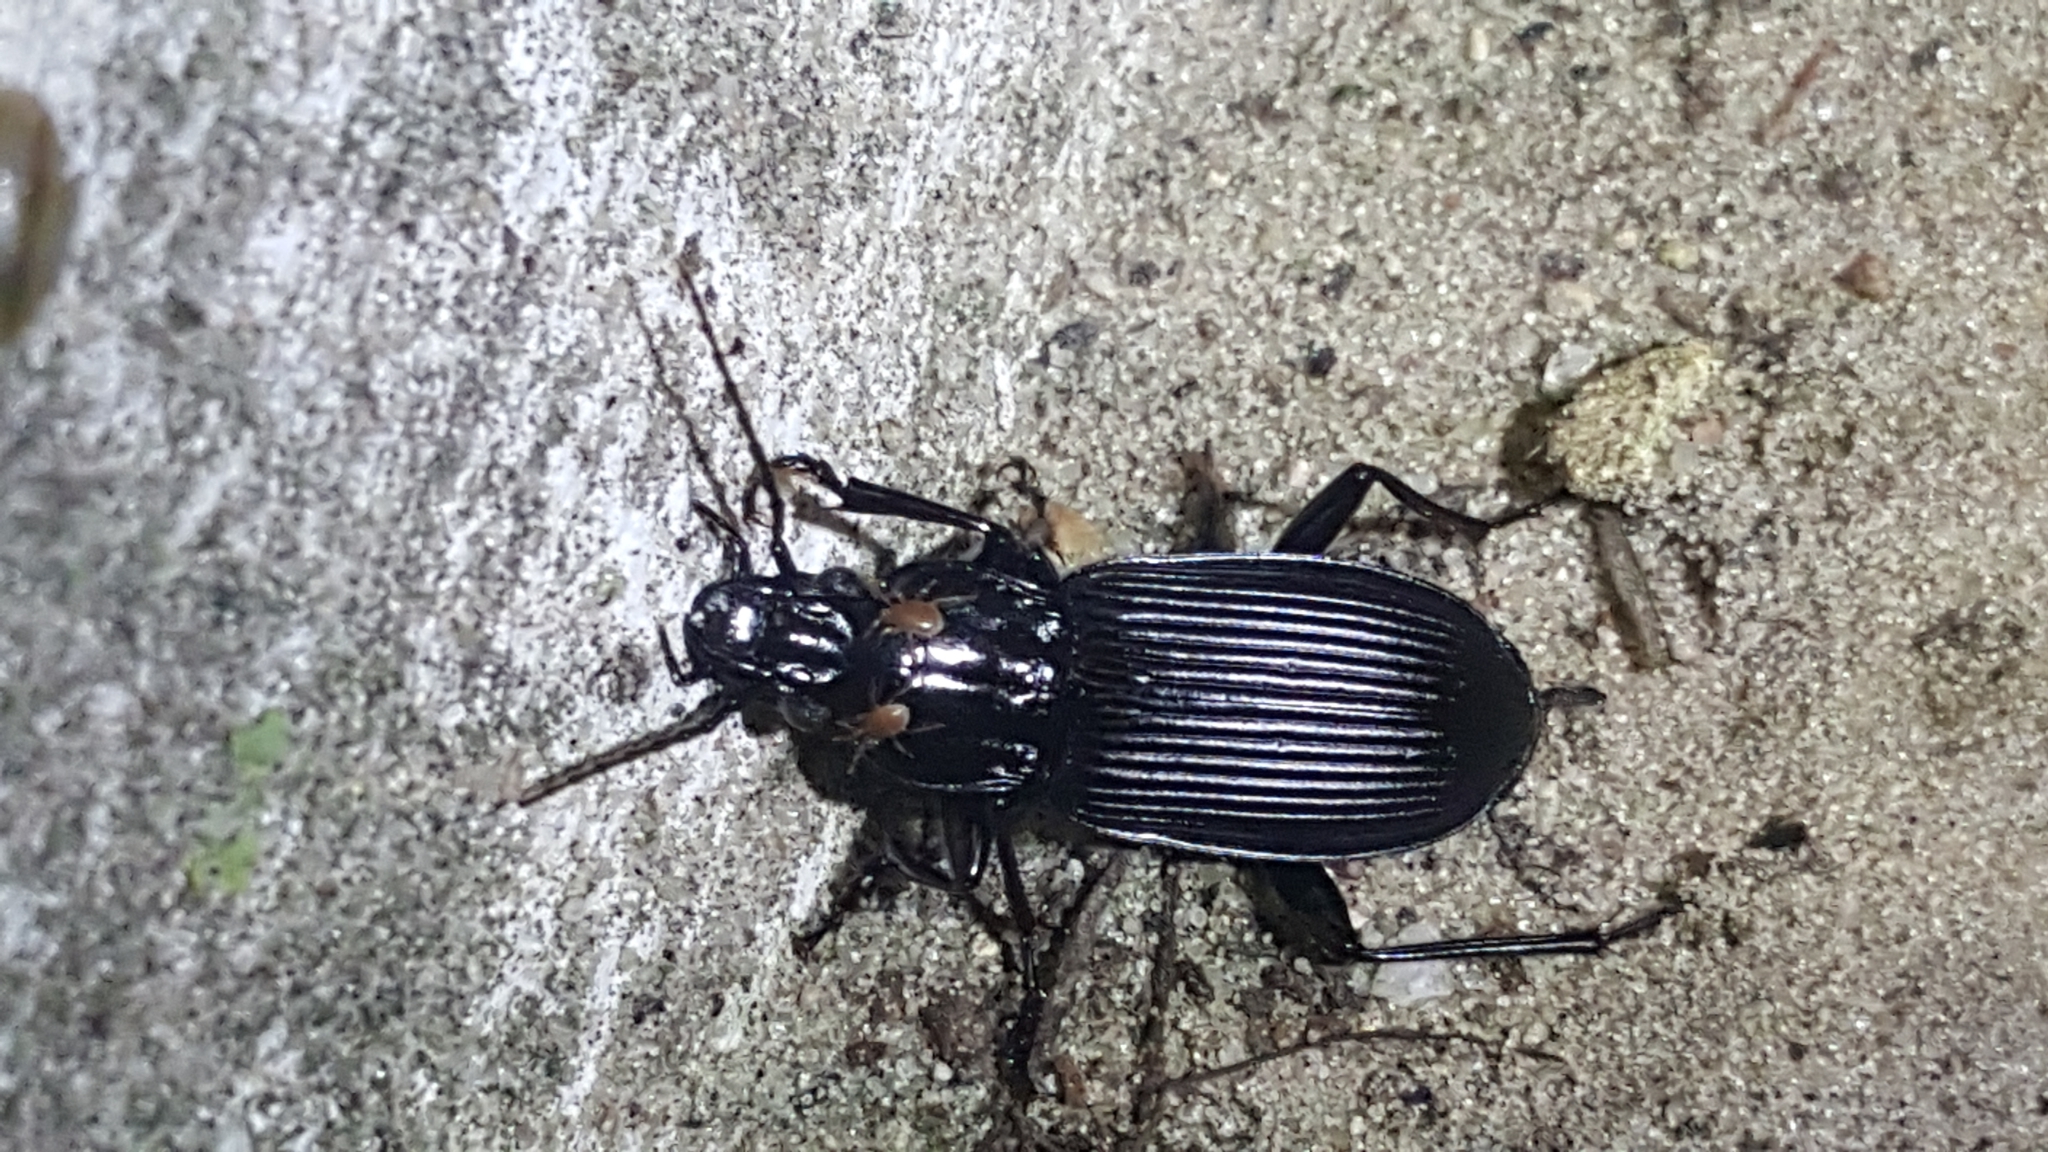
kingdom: Animalia
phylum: Arthropoda
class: Insecta
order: Coleoptera
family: Carabidae
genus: Pterostichus
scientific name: Pterostichus niger
